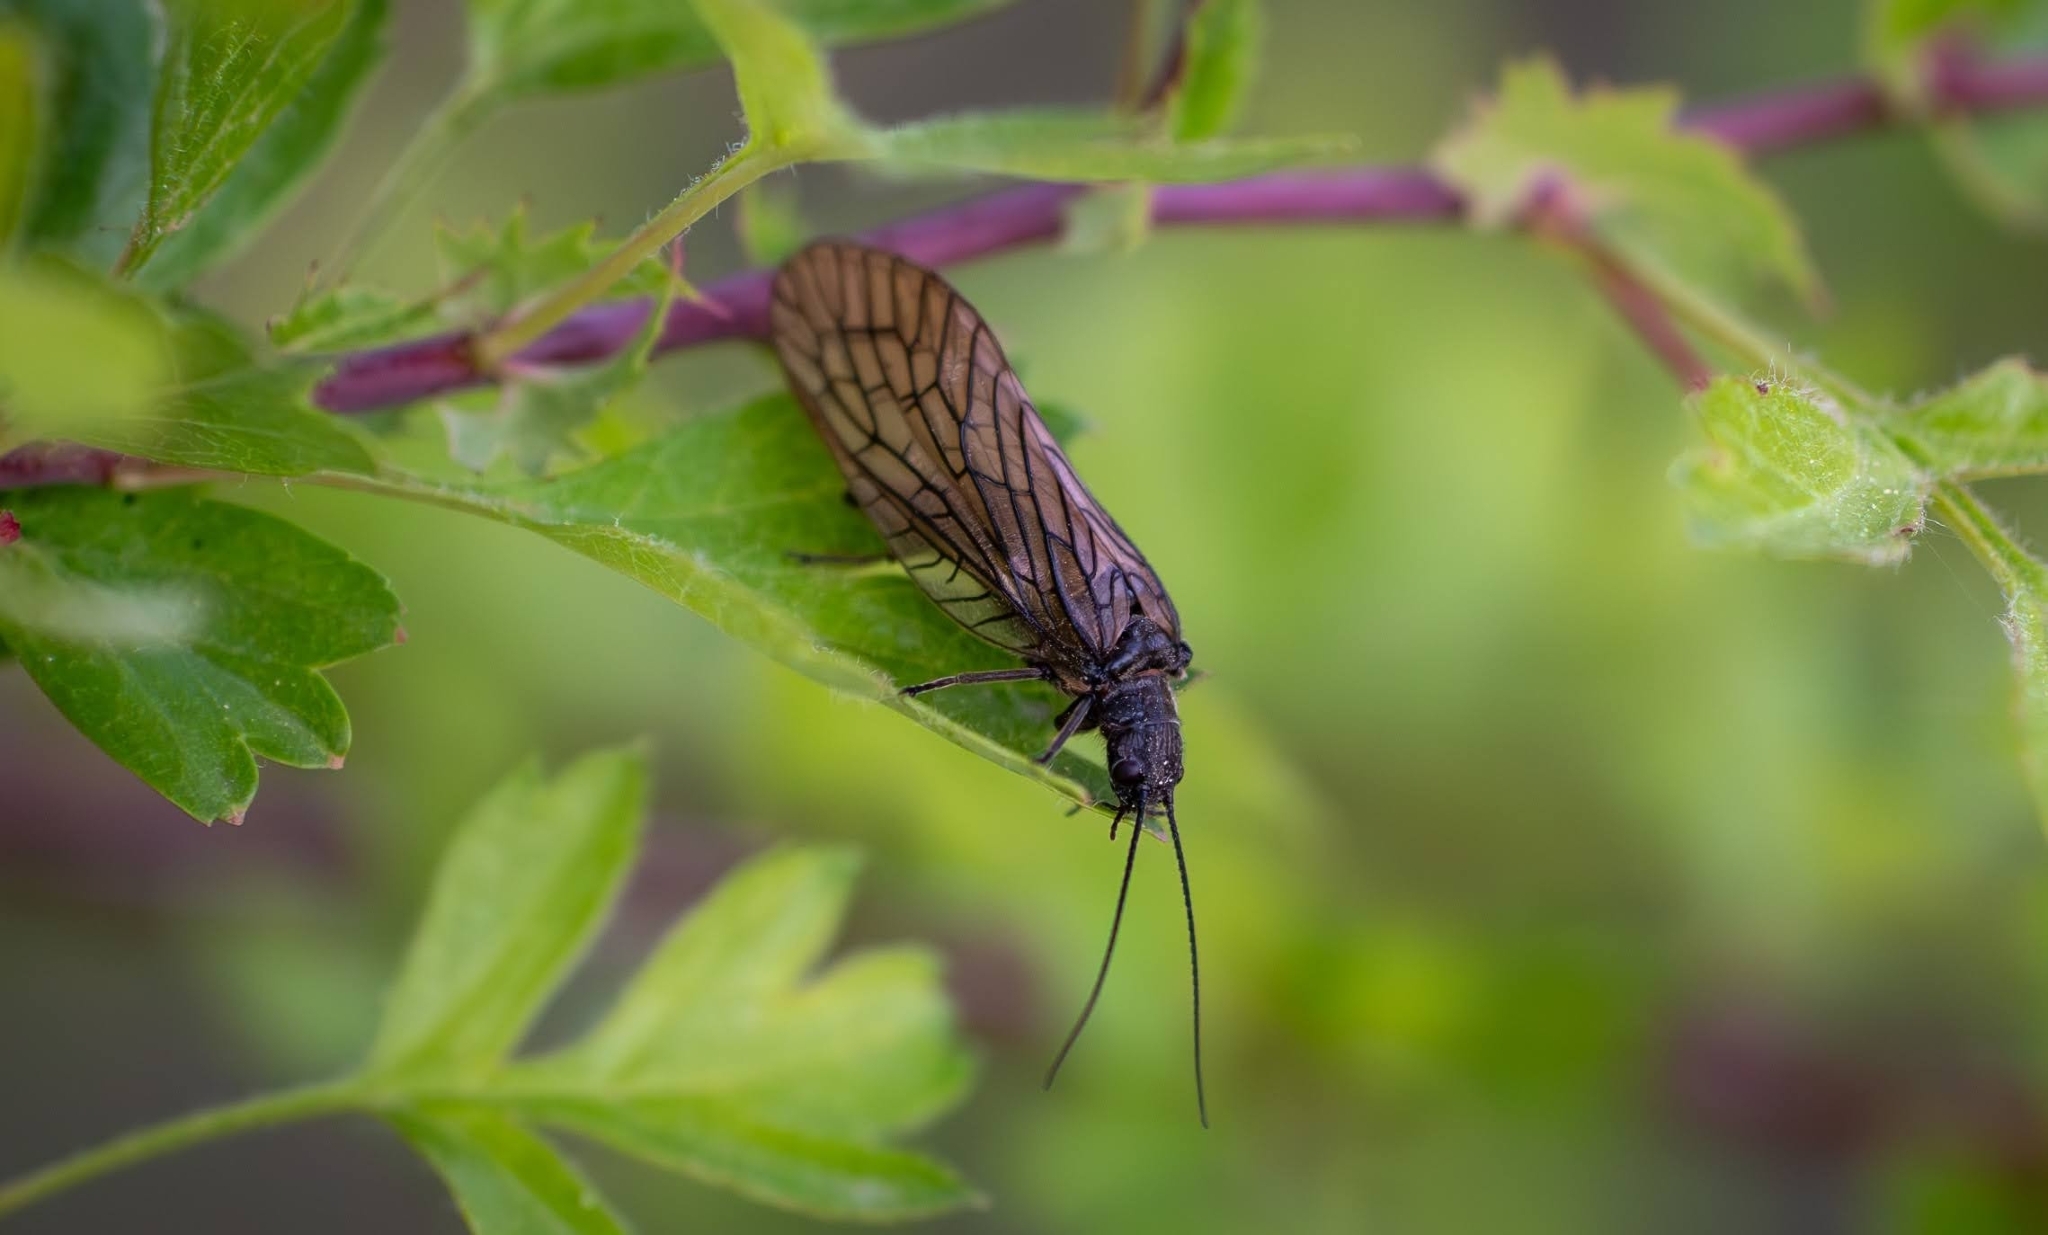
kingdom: Animalia
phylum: Arthropoda
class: Insecta
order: Megaloptera
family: Sialidae
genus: Sialis
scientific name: Sialis
